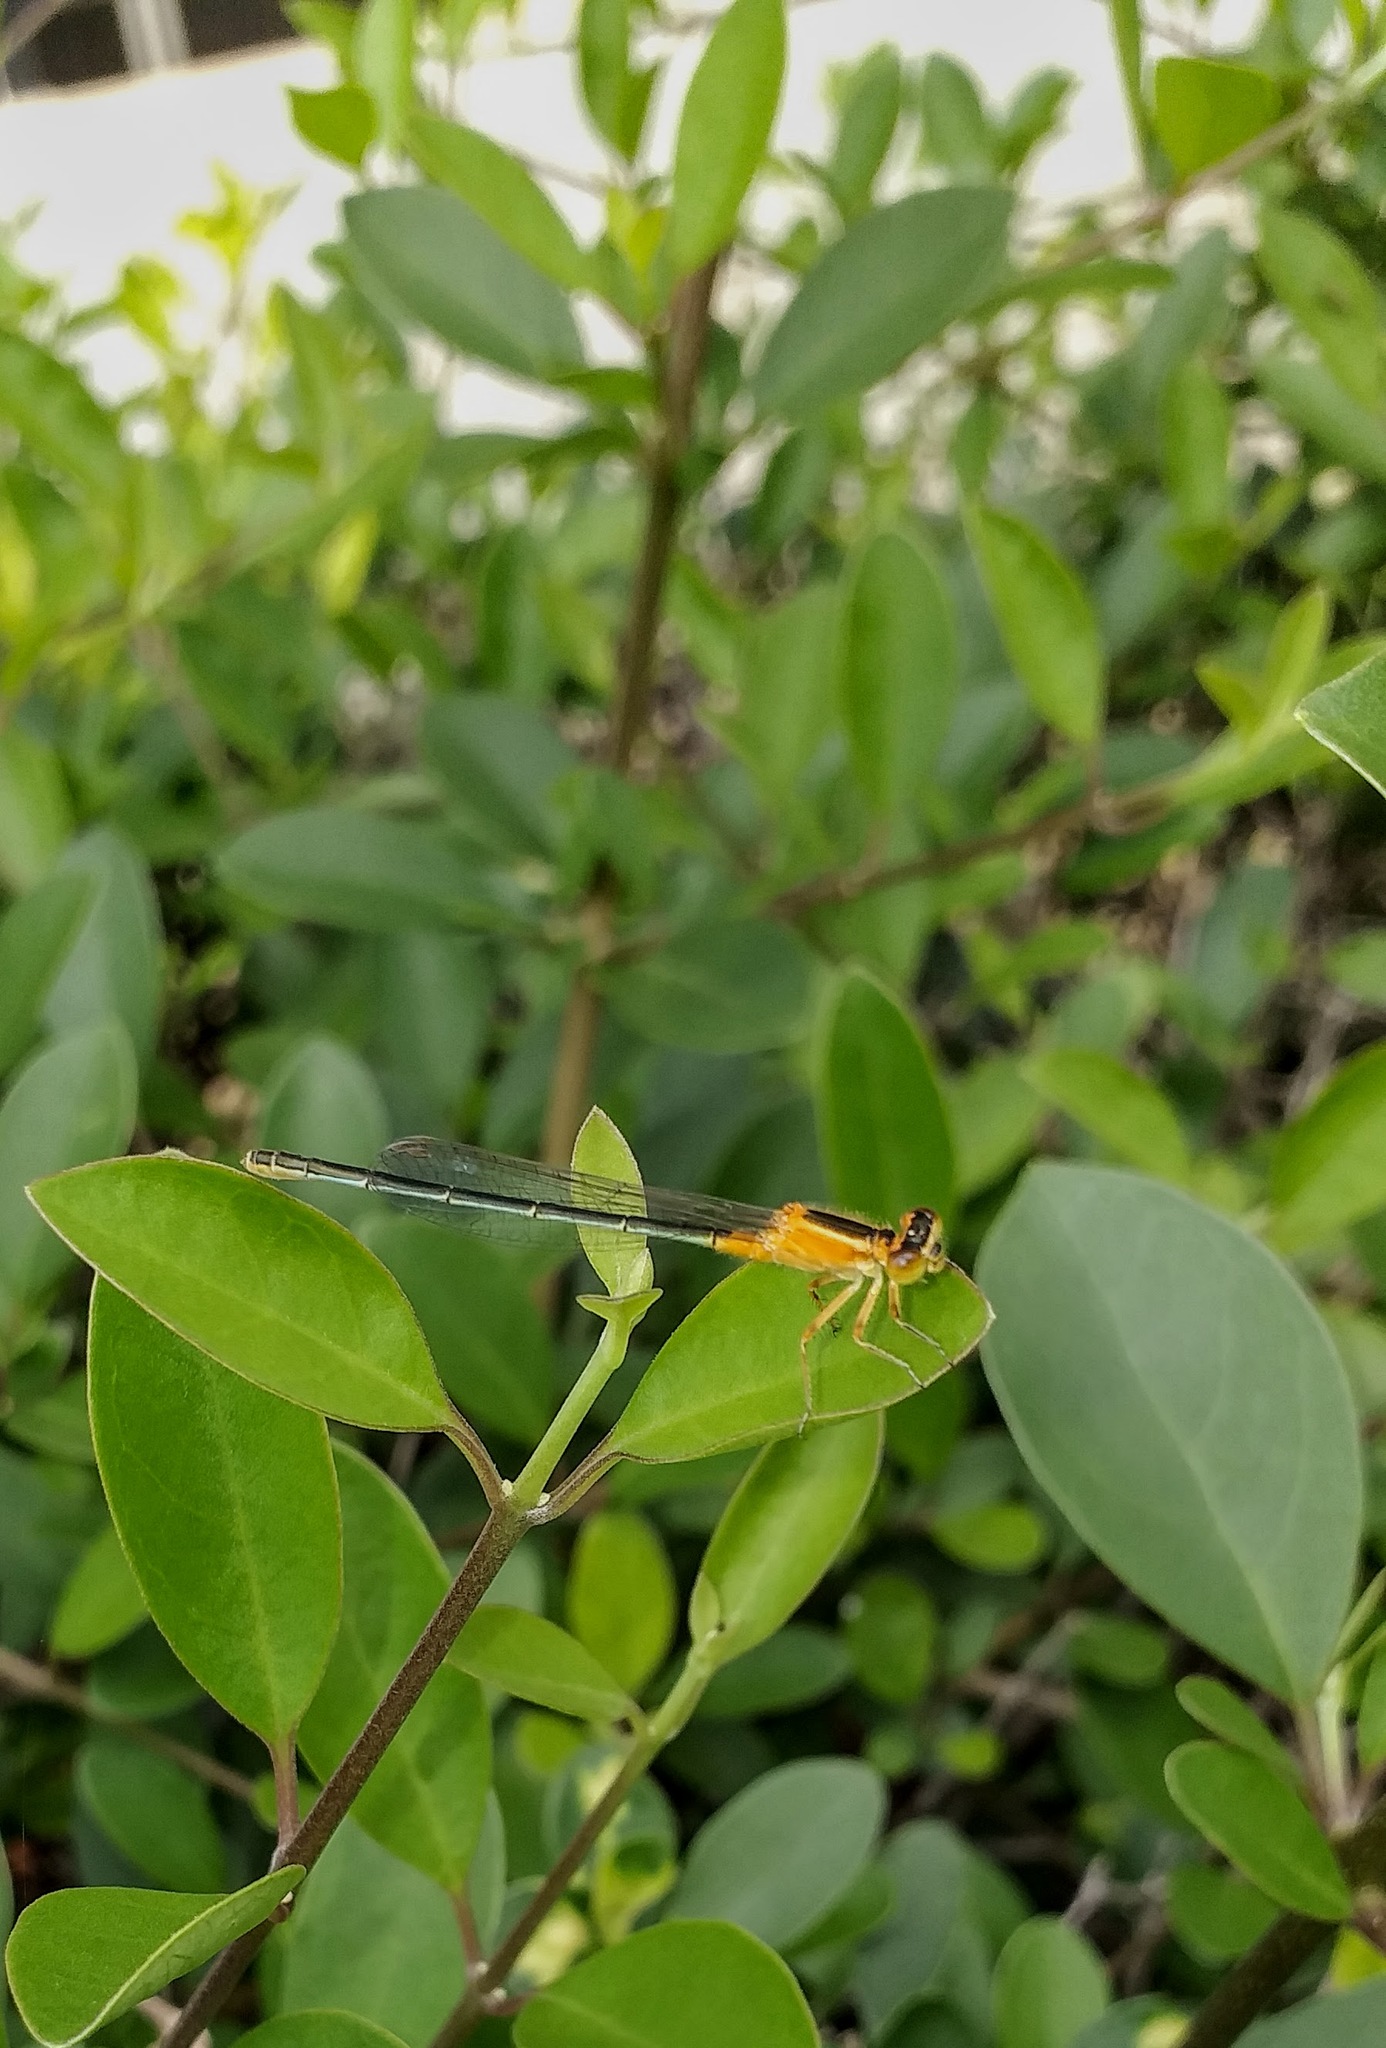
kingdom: Animalia
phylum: Arthropoda
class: Insecta
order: Odonata
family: Coenagrionidae
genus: Ischnura
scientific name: Ischnura senegalensis
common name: Tropical bluetail
